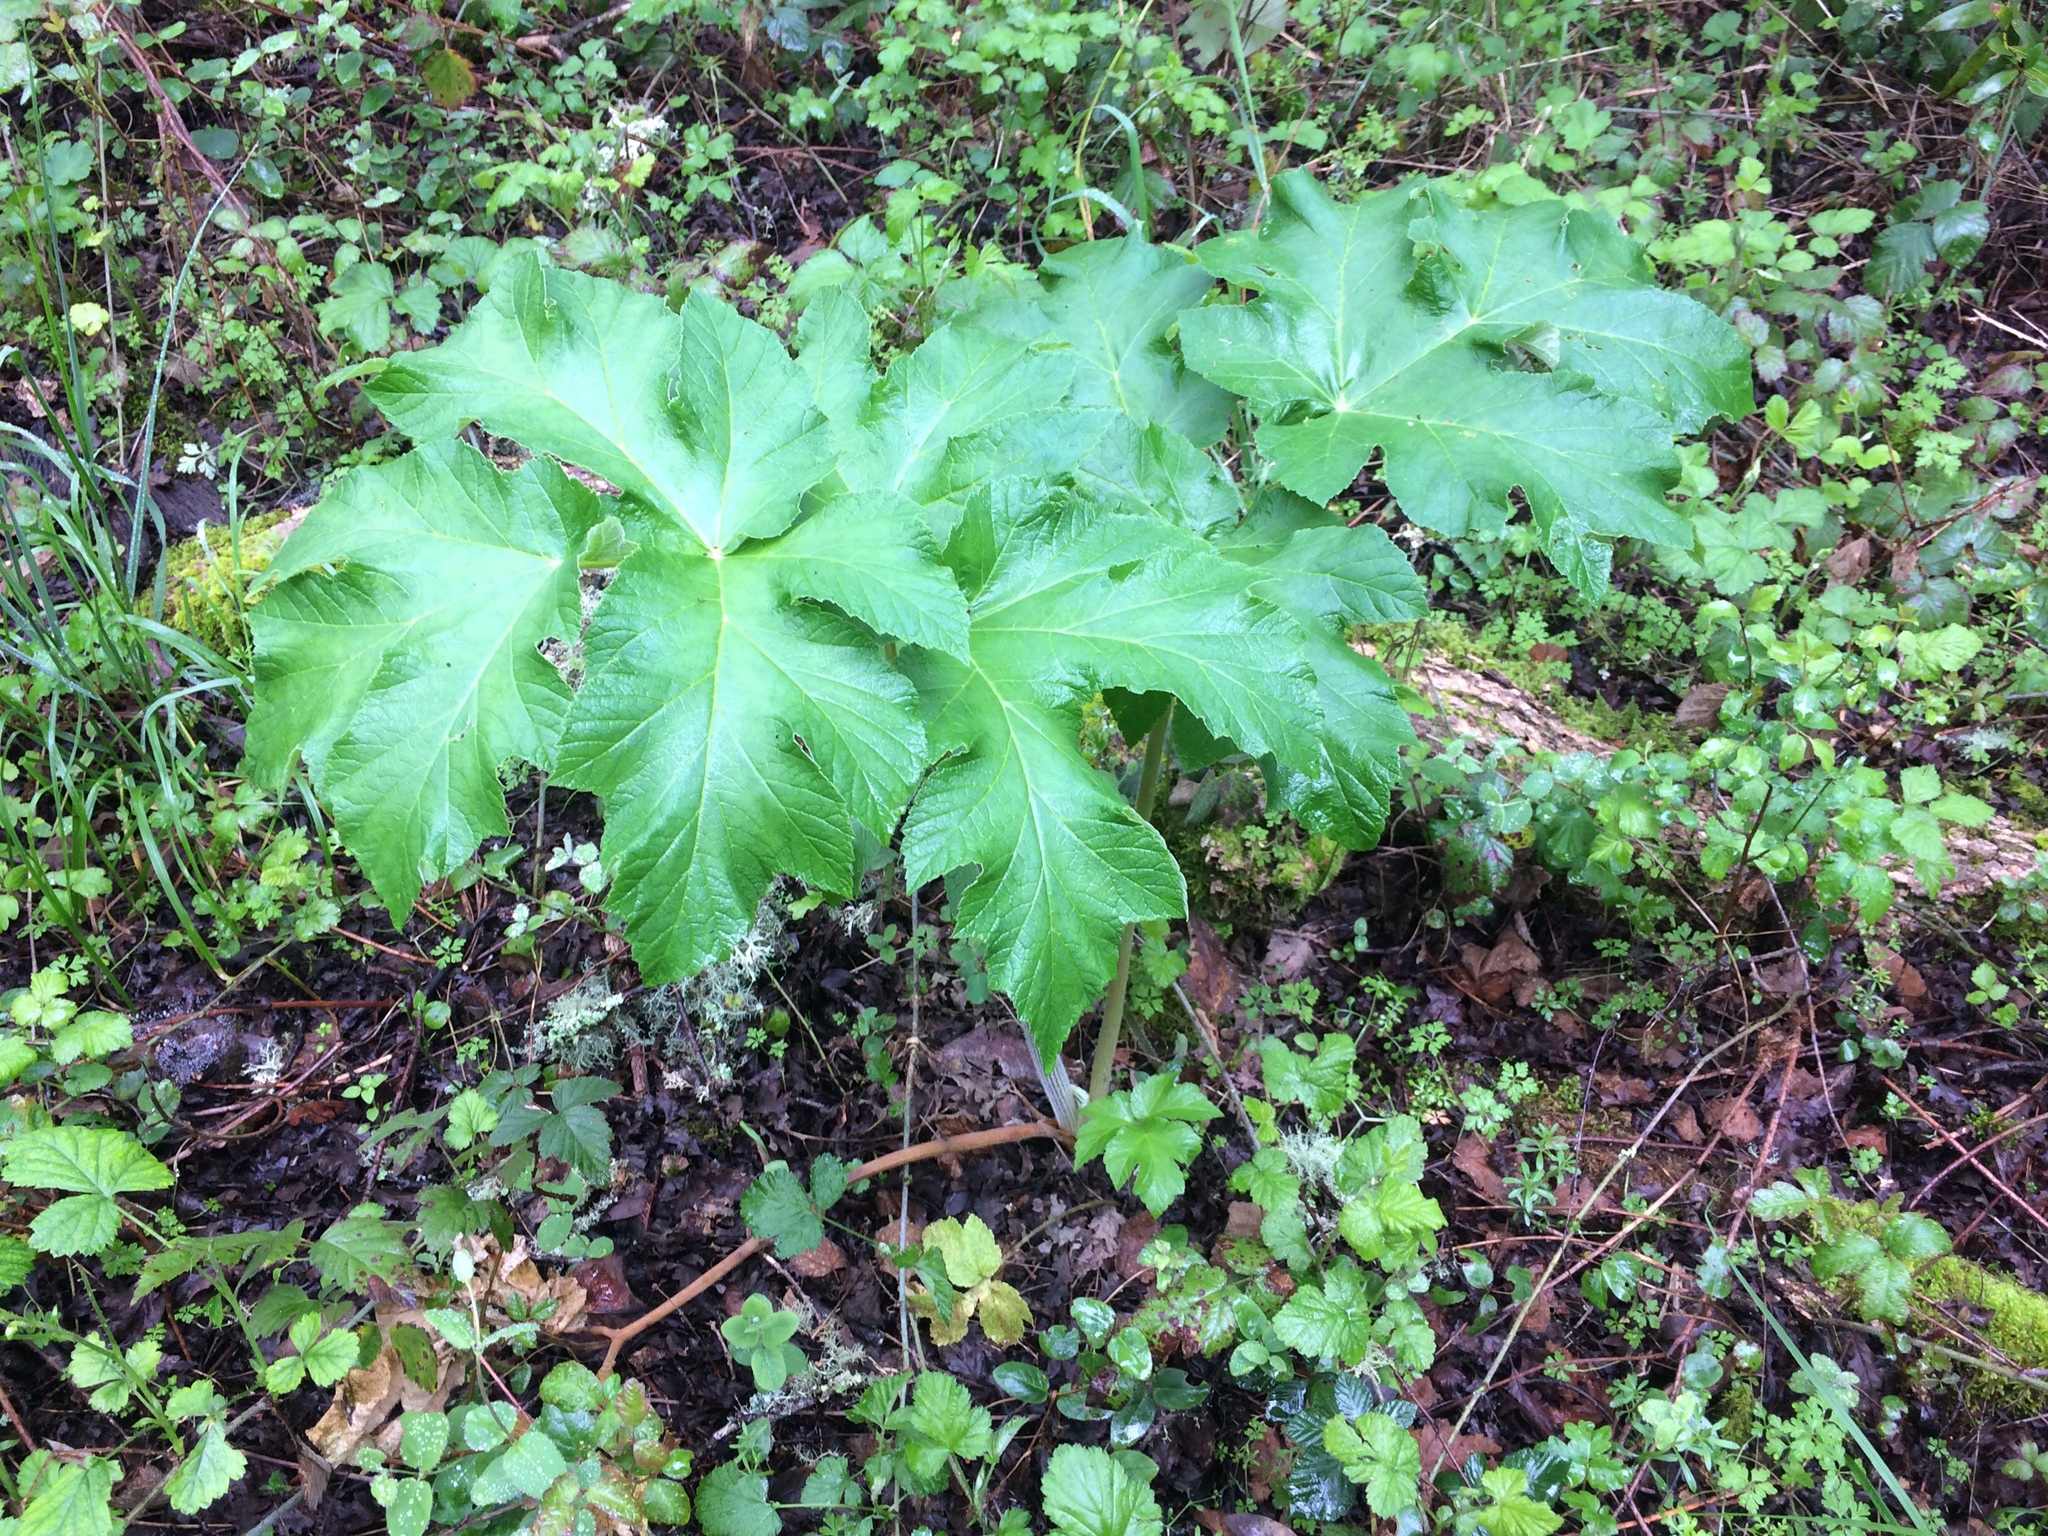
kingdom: Plantae
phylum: Tracheophyta
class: Magnoliopsida
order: Apiales
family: Apiaceae
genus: Heracleum
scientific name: Heracleum maximum
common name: American cow parsnip
